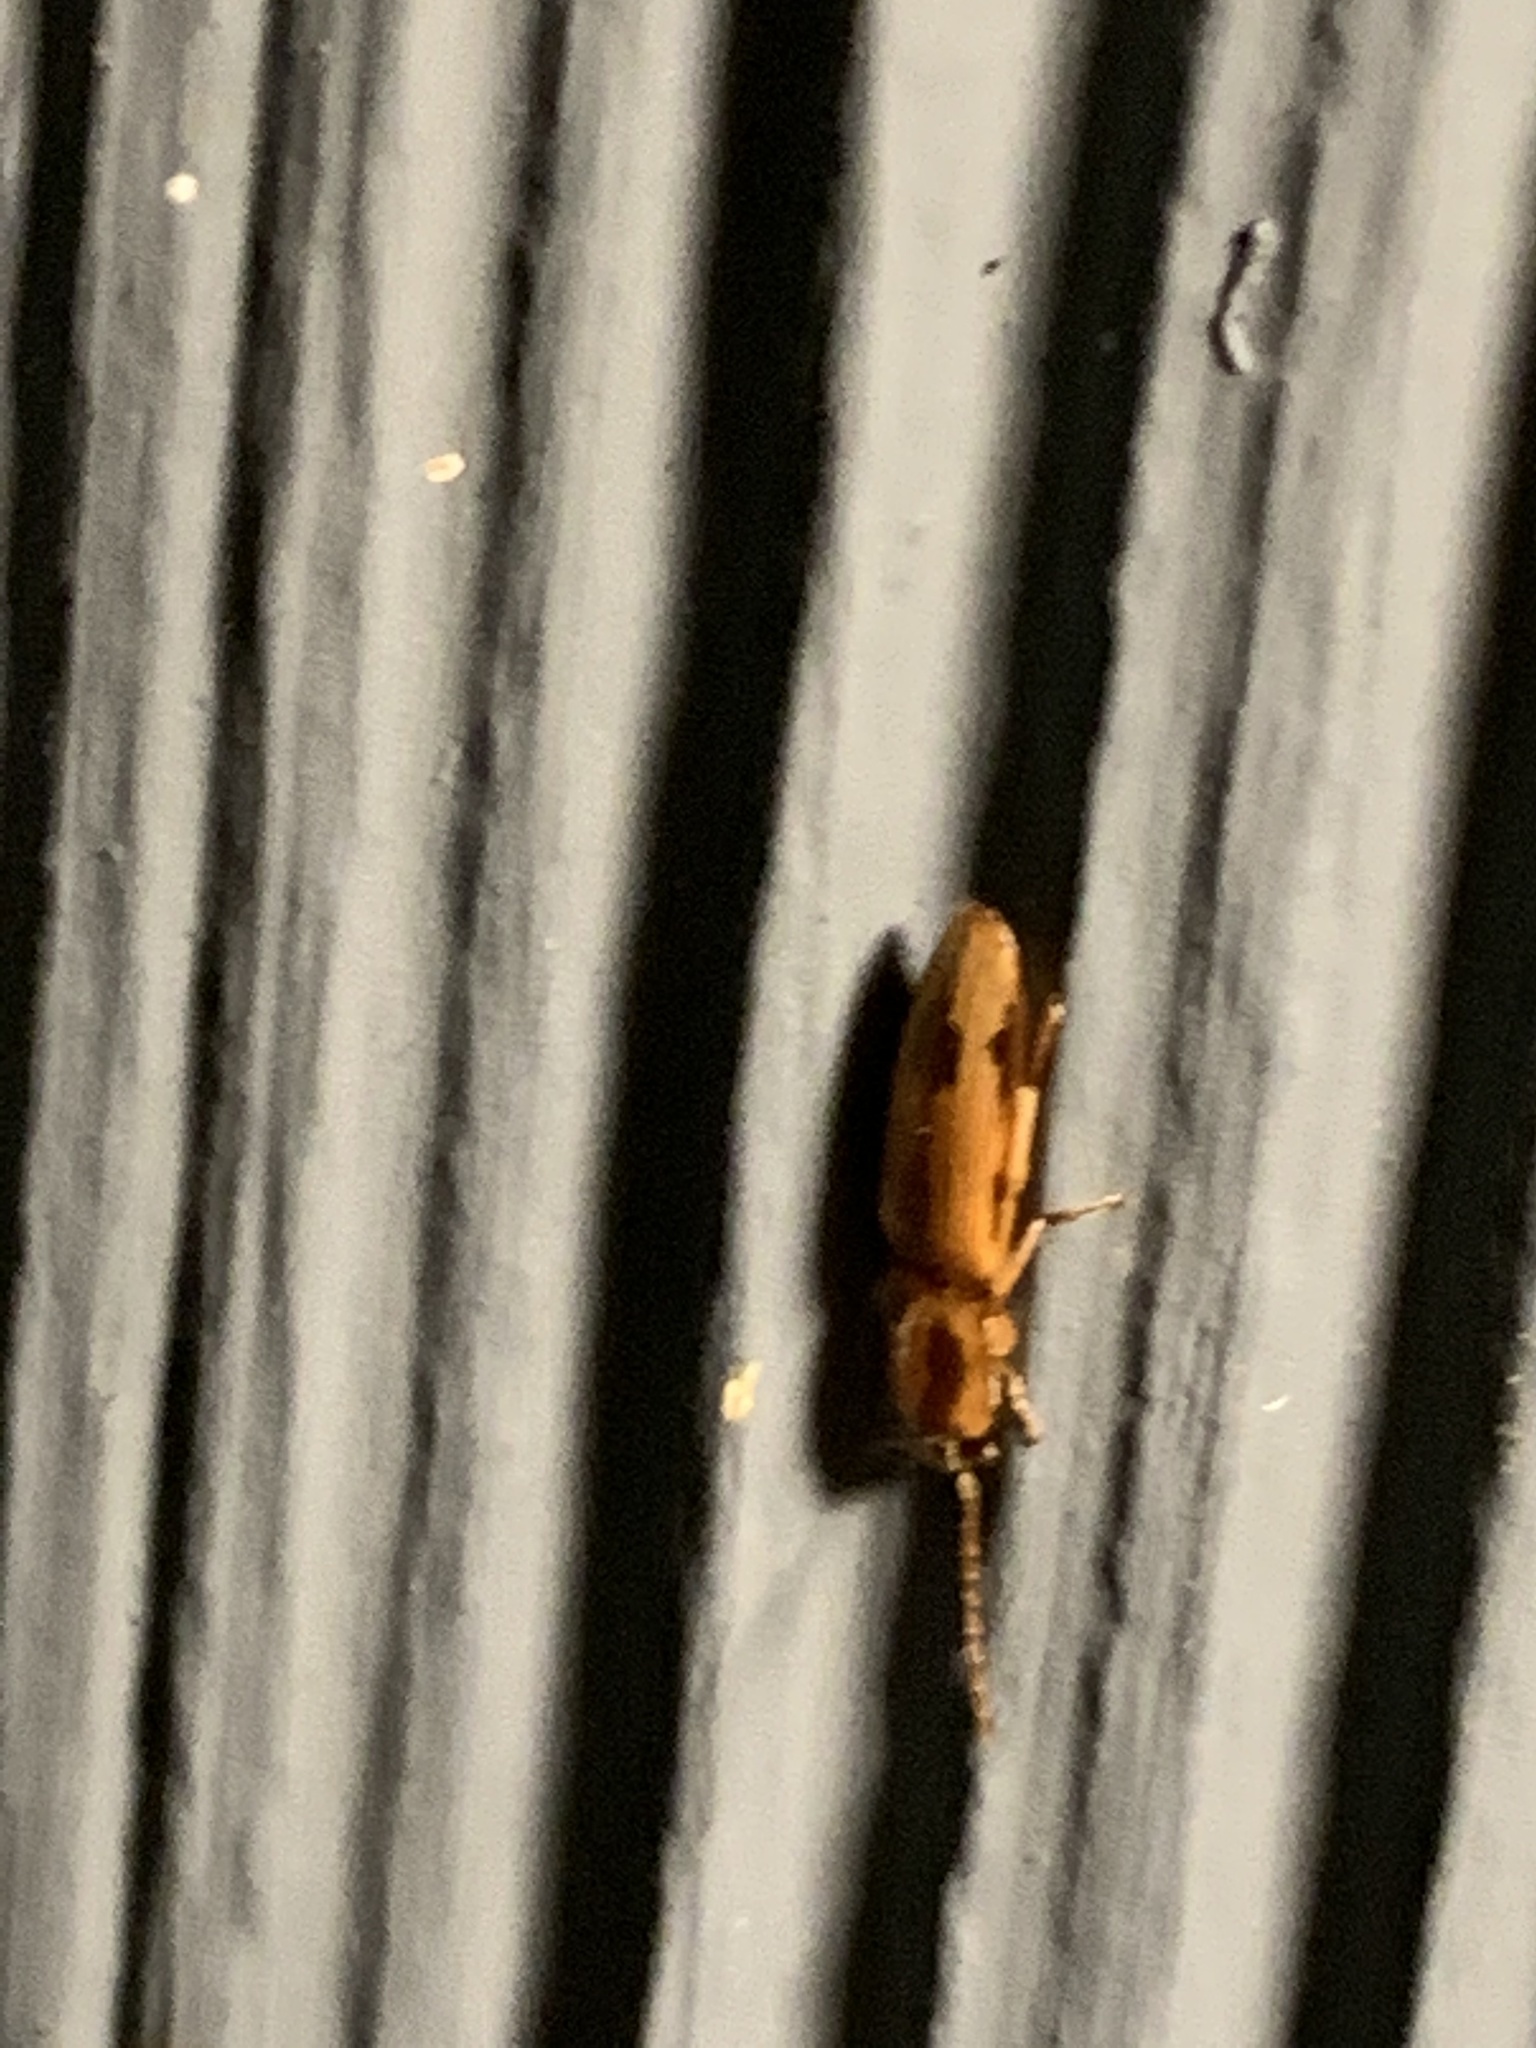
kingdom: Animalia
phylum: Arthropoda
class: Insecta
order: Coleoptera
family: Elateridae
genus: Monocrepidius
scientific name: Monocrepidius
